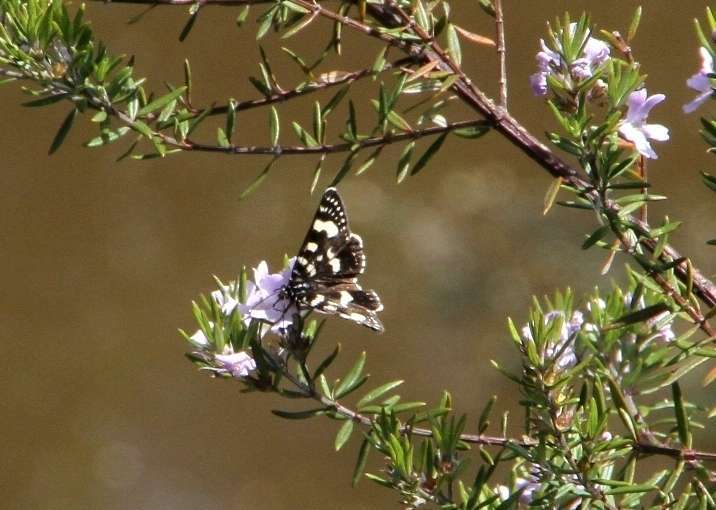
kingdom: Animalia
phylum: Arthropoda
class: Insecta
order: Lepidoptera
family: Noctuidae
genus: Phalaenoides
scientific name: Phalaenoides tristifica
